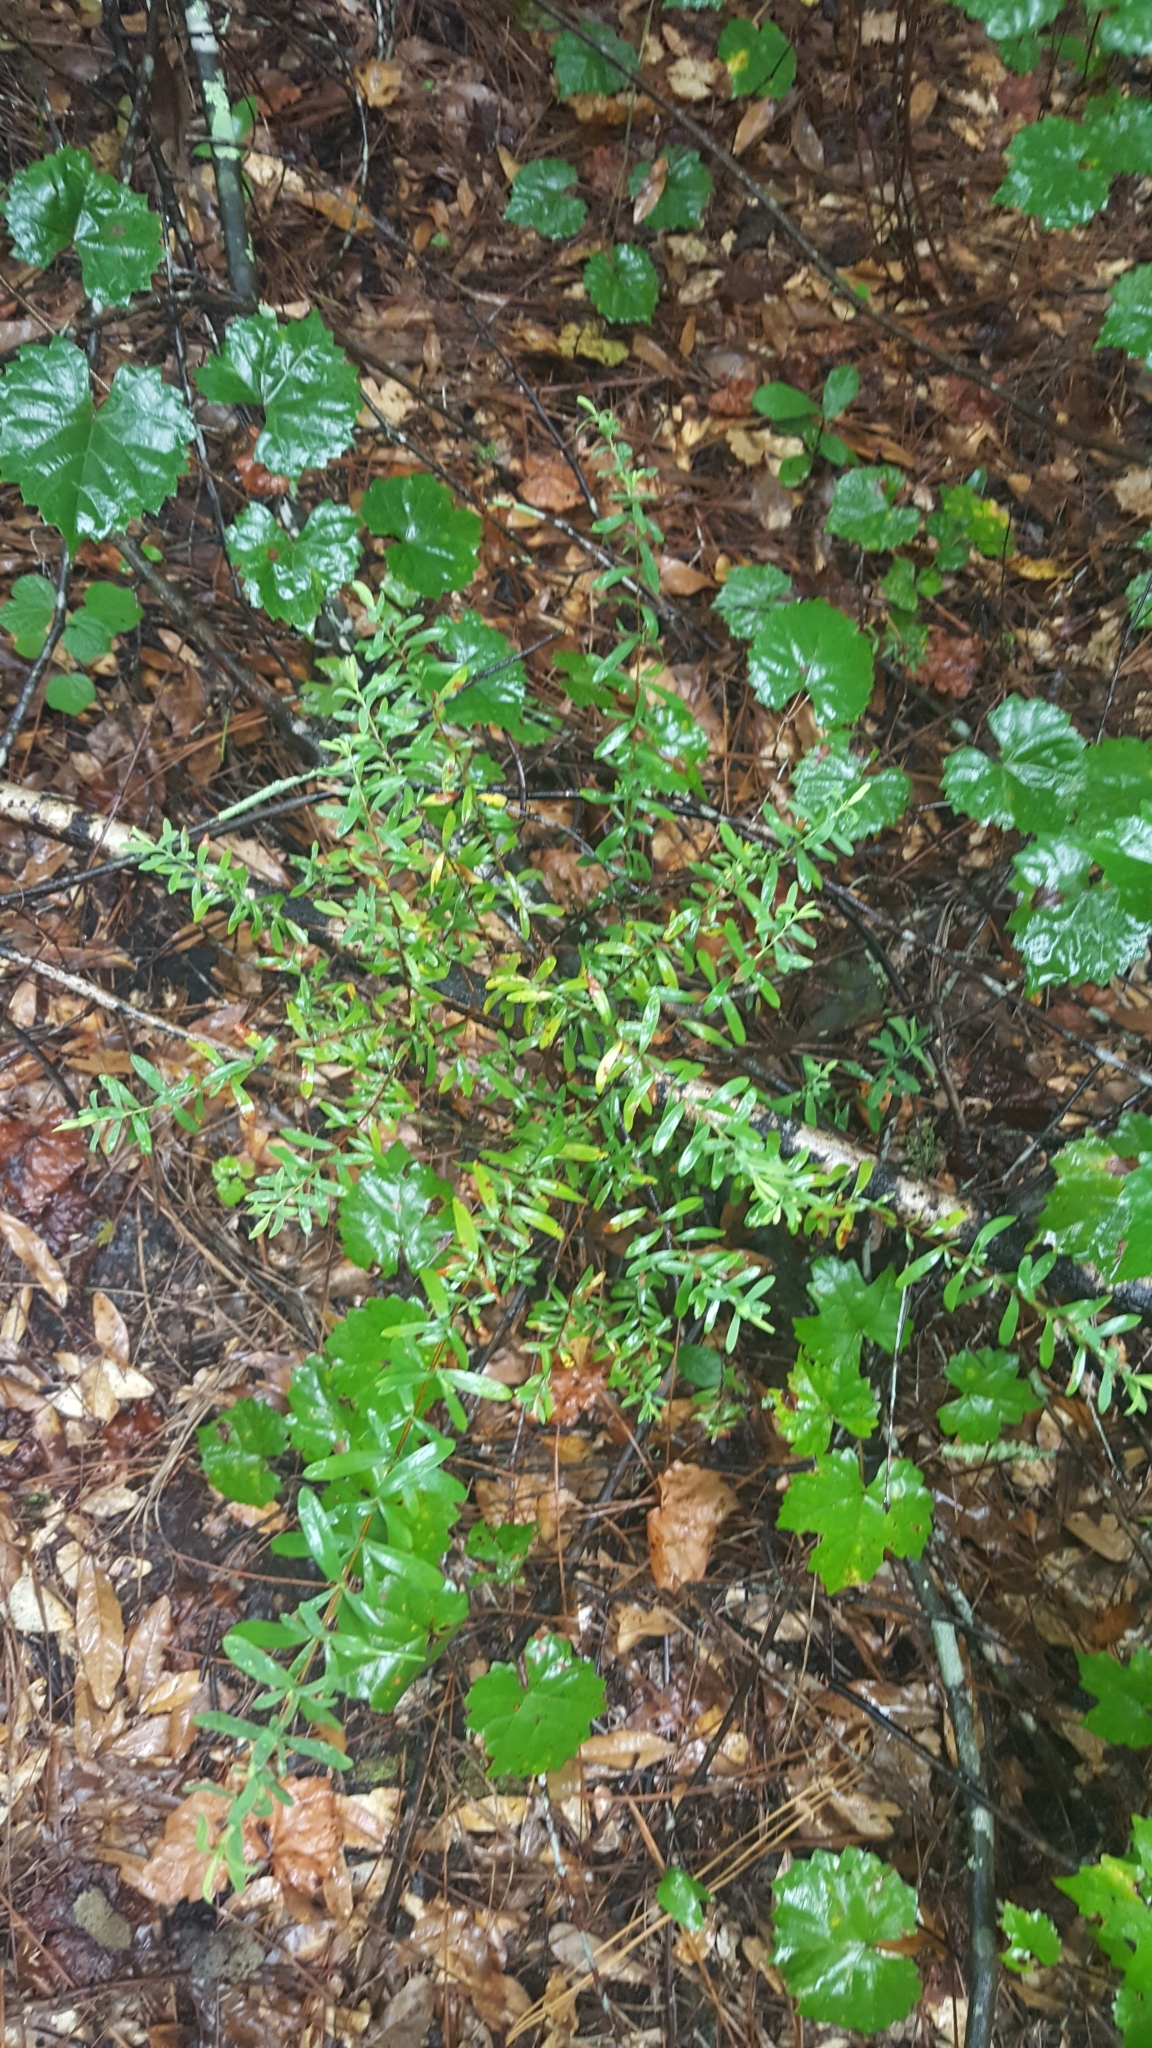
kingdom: Plantae
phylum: Tracheophyta
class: Magnoliopsida
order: Malpighiales
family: Hypericaceae
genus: Hypericum
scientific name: Hypericum hypericoides
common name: St. andrew's cross
